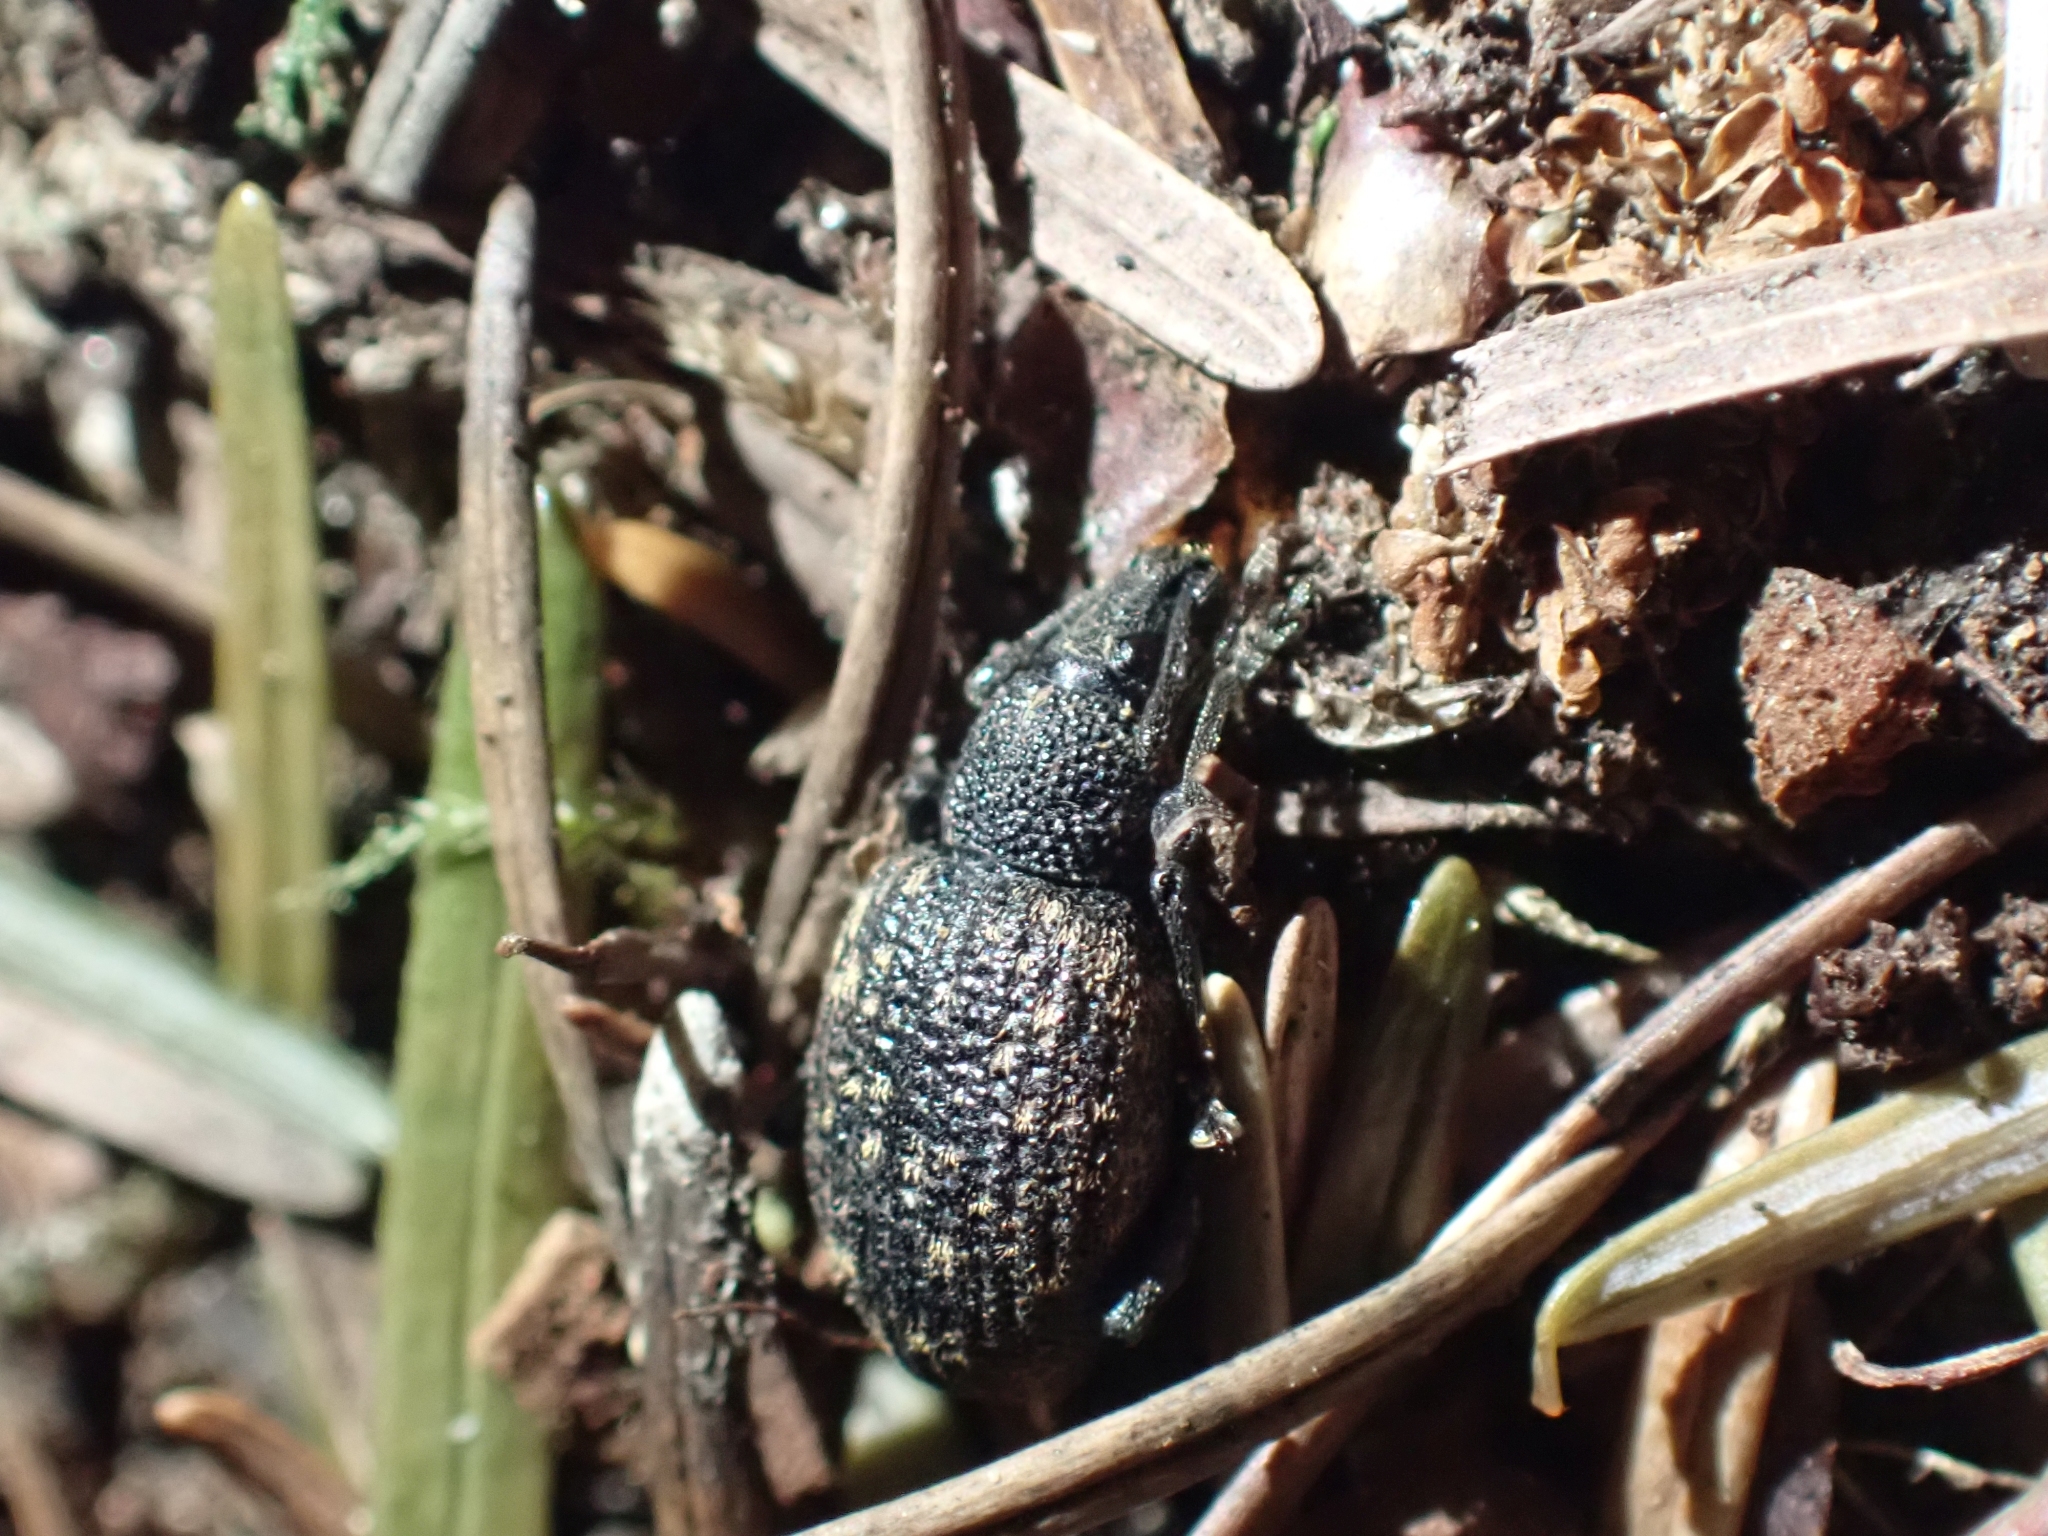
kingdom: Animalia
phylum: Arthropoda
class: Insecta
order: Coleoptera
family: Curculionidae
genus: Otiorhynchus
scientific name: Otiorhynchus sulcatus
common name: Black vine weevil
